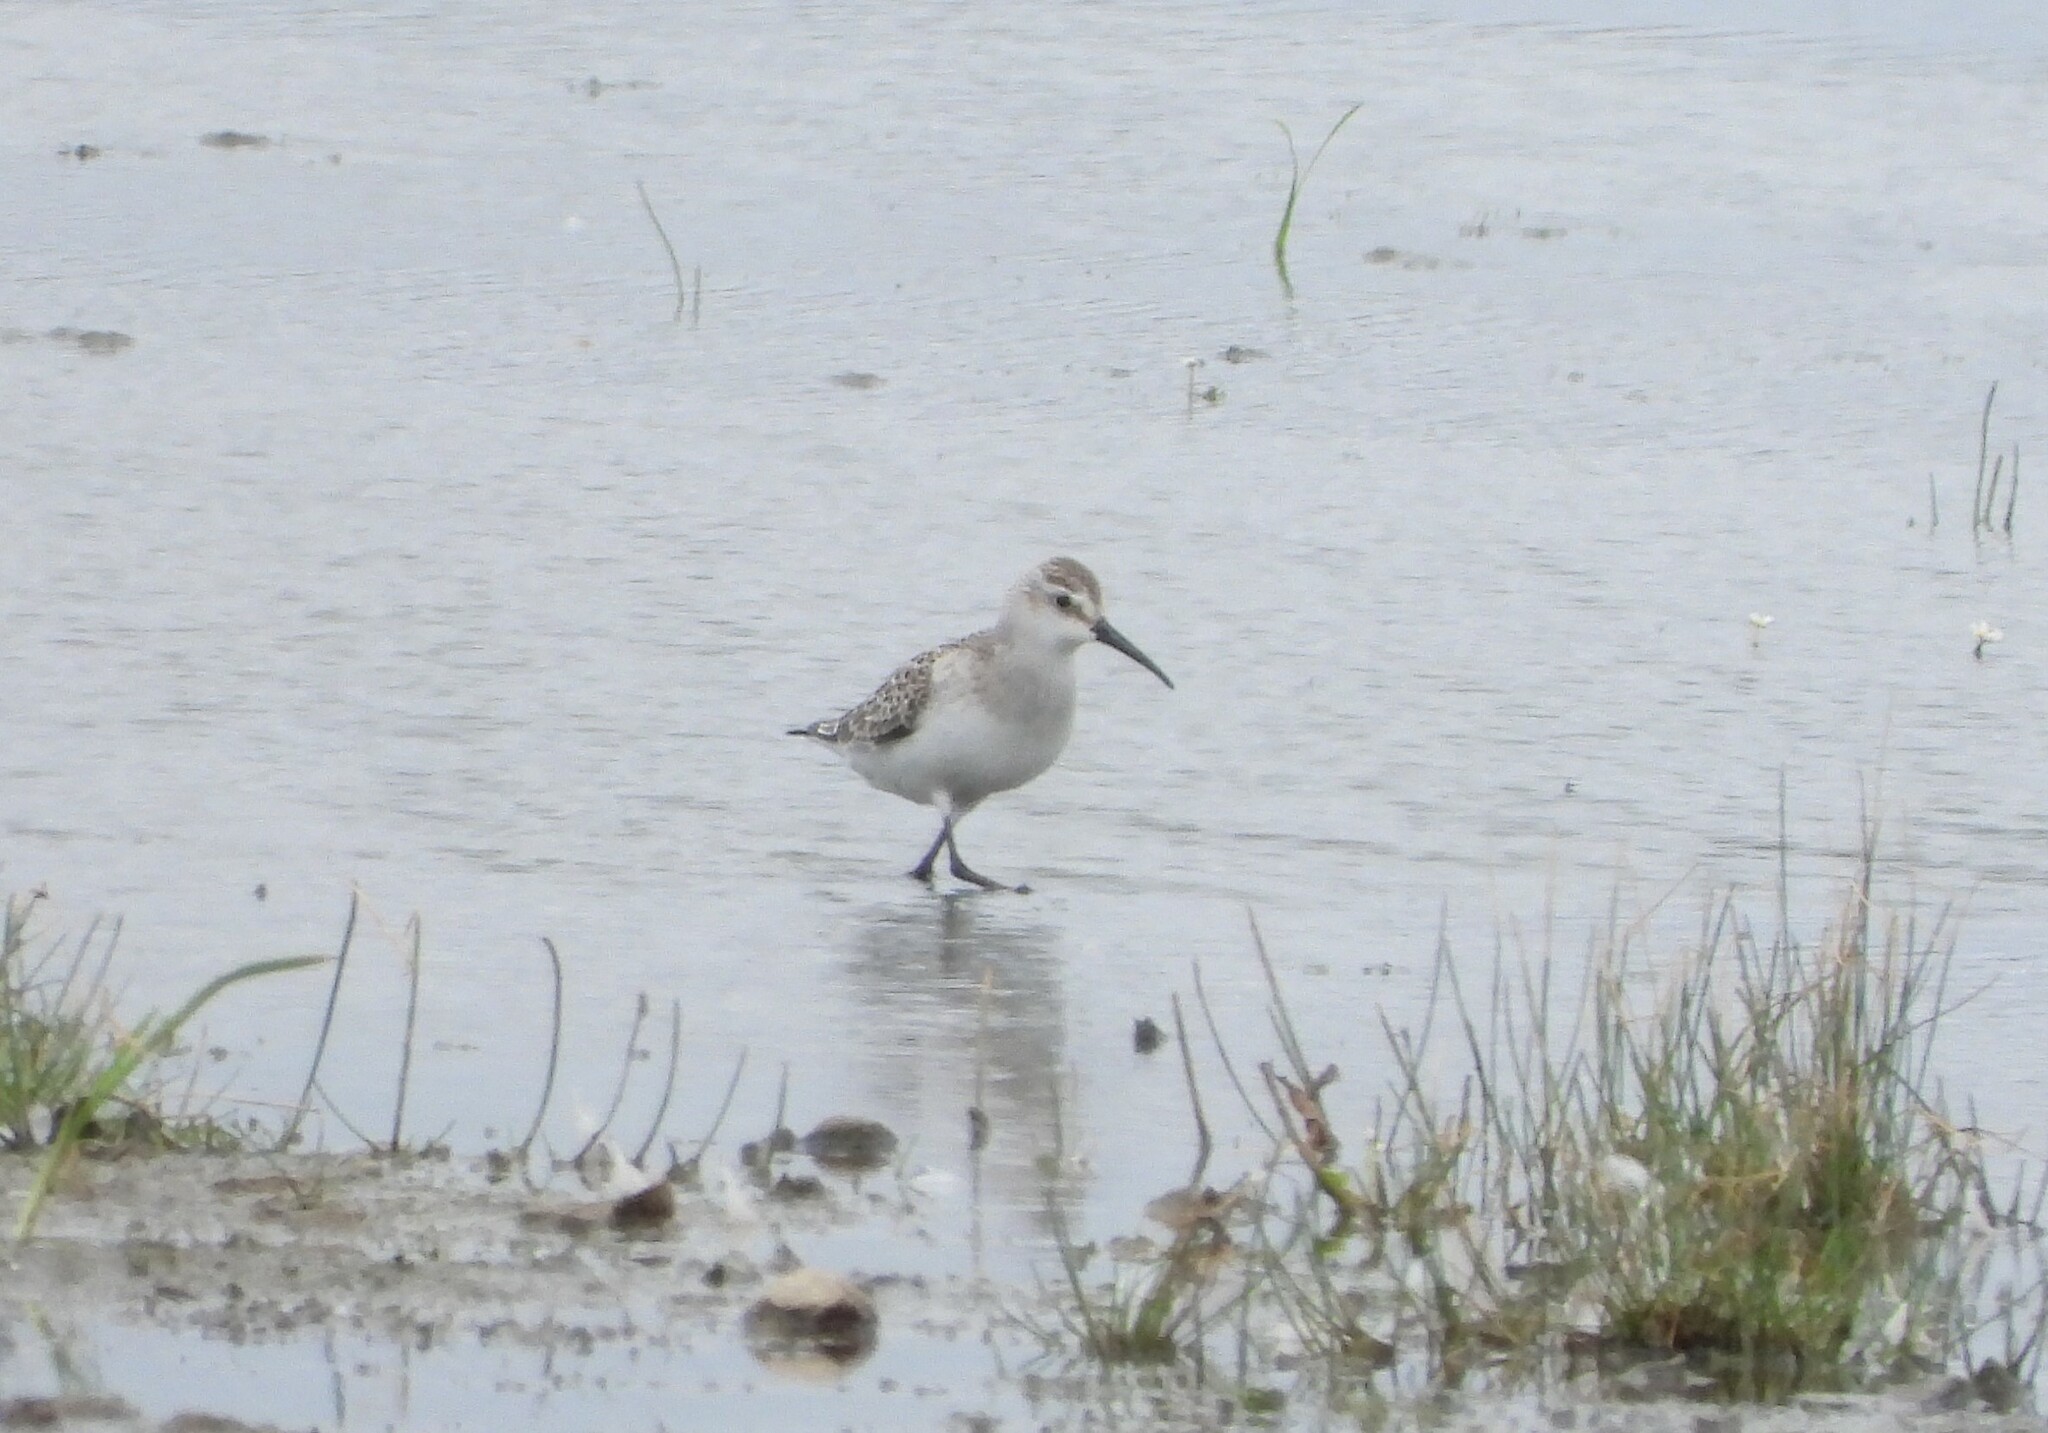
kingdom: Animalia
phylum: Chordata
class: Aves
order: Charadriiformes
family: Scolopacidae
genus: Calidris
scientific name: Calidris ferruginea
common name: Curlew sandpiper
